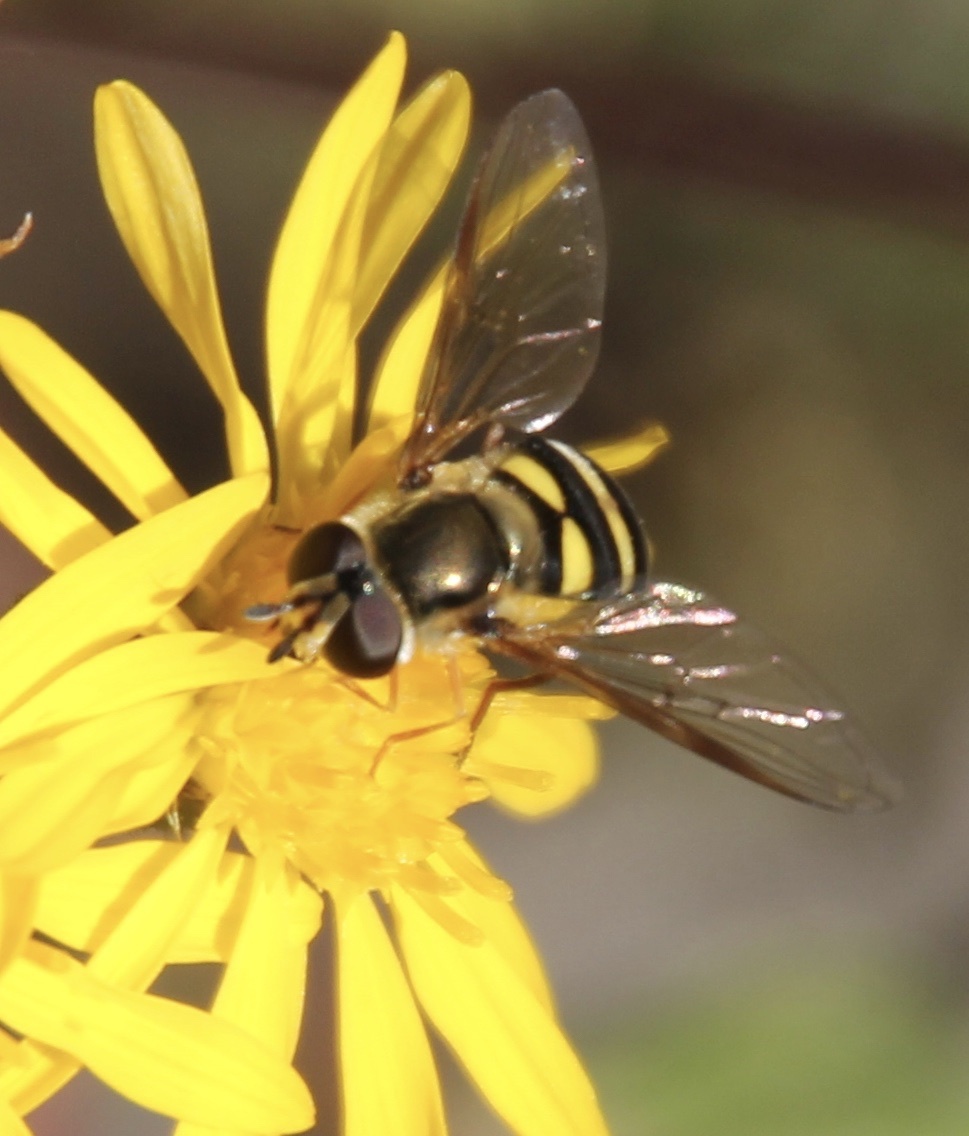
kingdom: Animalia
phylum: Arthropoda
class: Insecta
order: Diptera
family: Syrphidae
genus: Eupeodes
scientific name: Eupeodes
